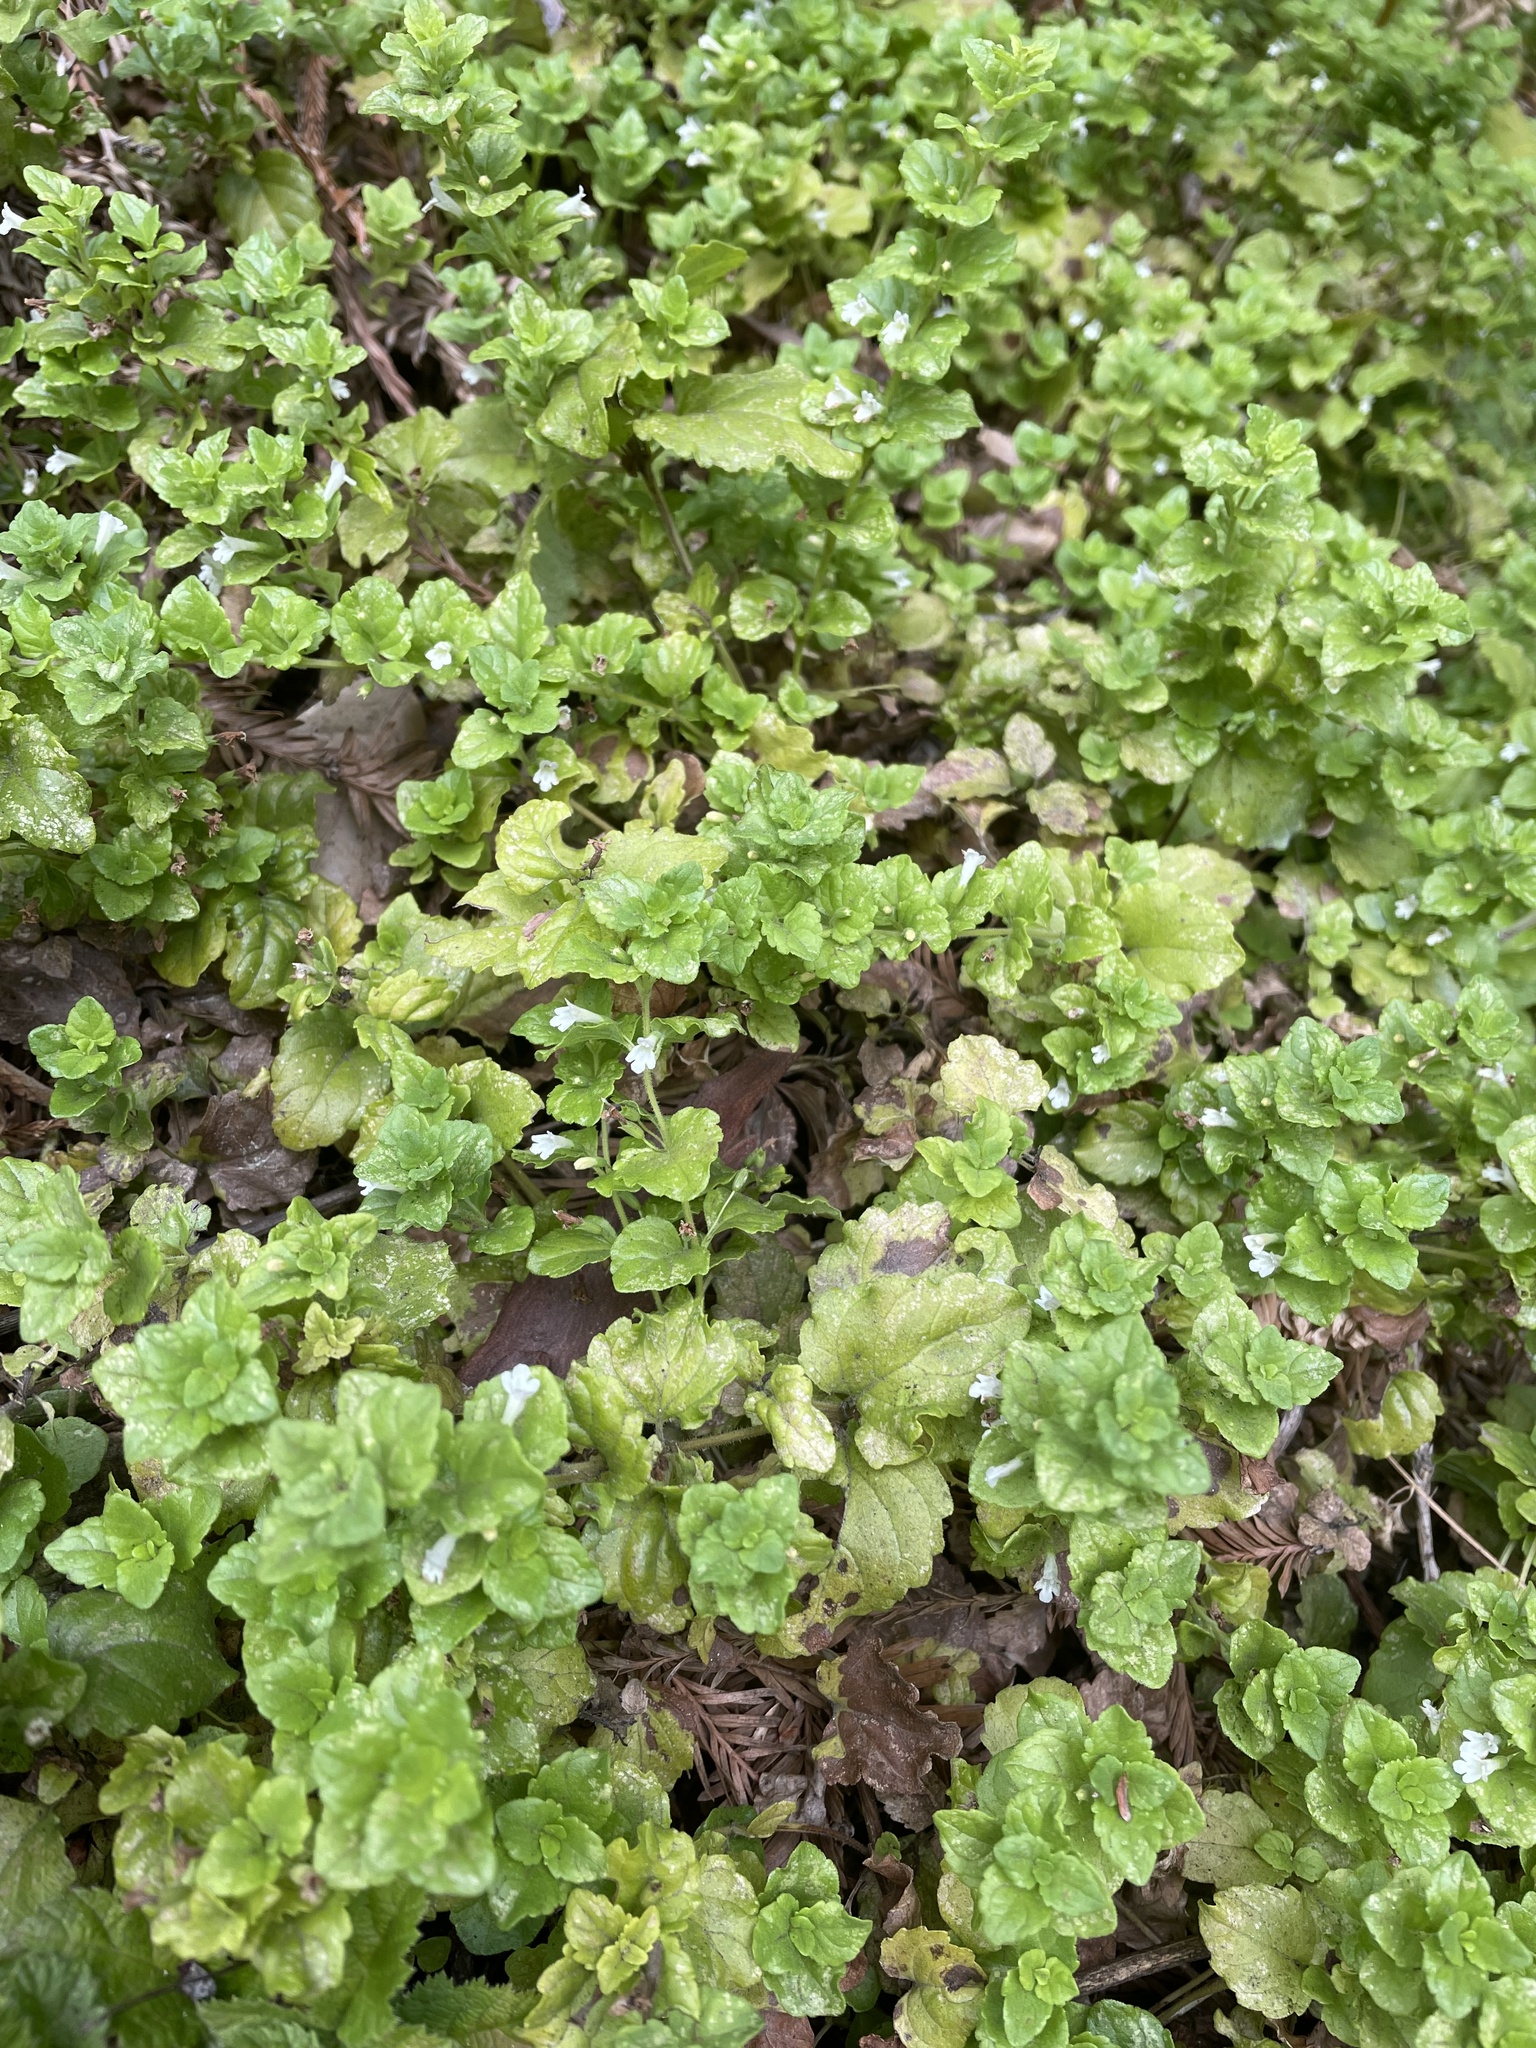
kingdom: Plantae
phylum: Tracheophyta
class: Magnoliopsida
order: Lamiales
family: Lamiaceae
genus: Micromeria
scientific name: Micromeria douglasii
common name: Yerba buena
